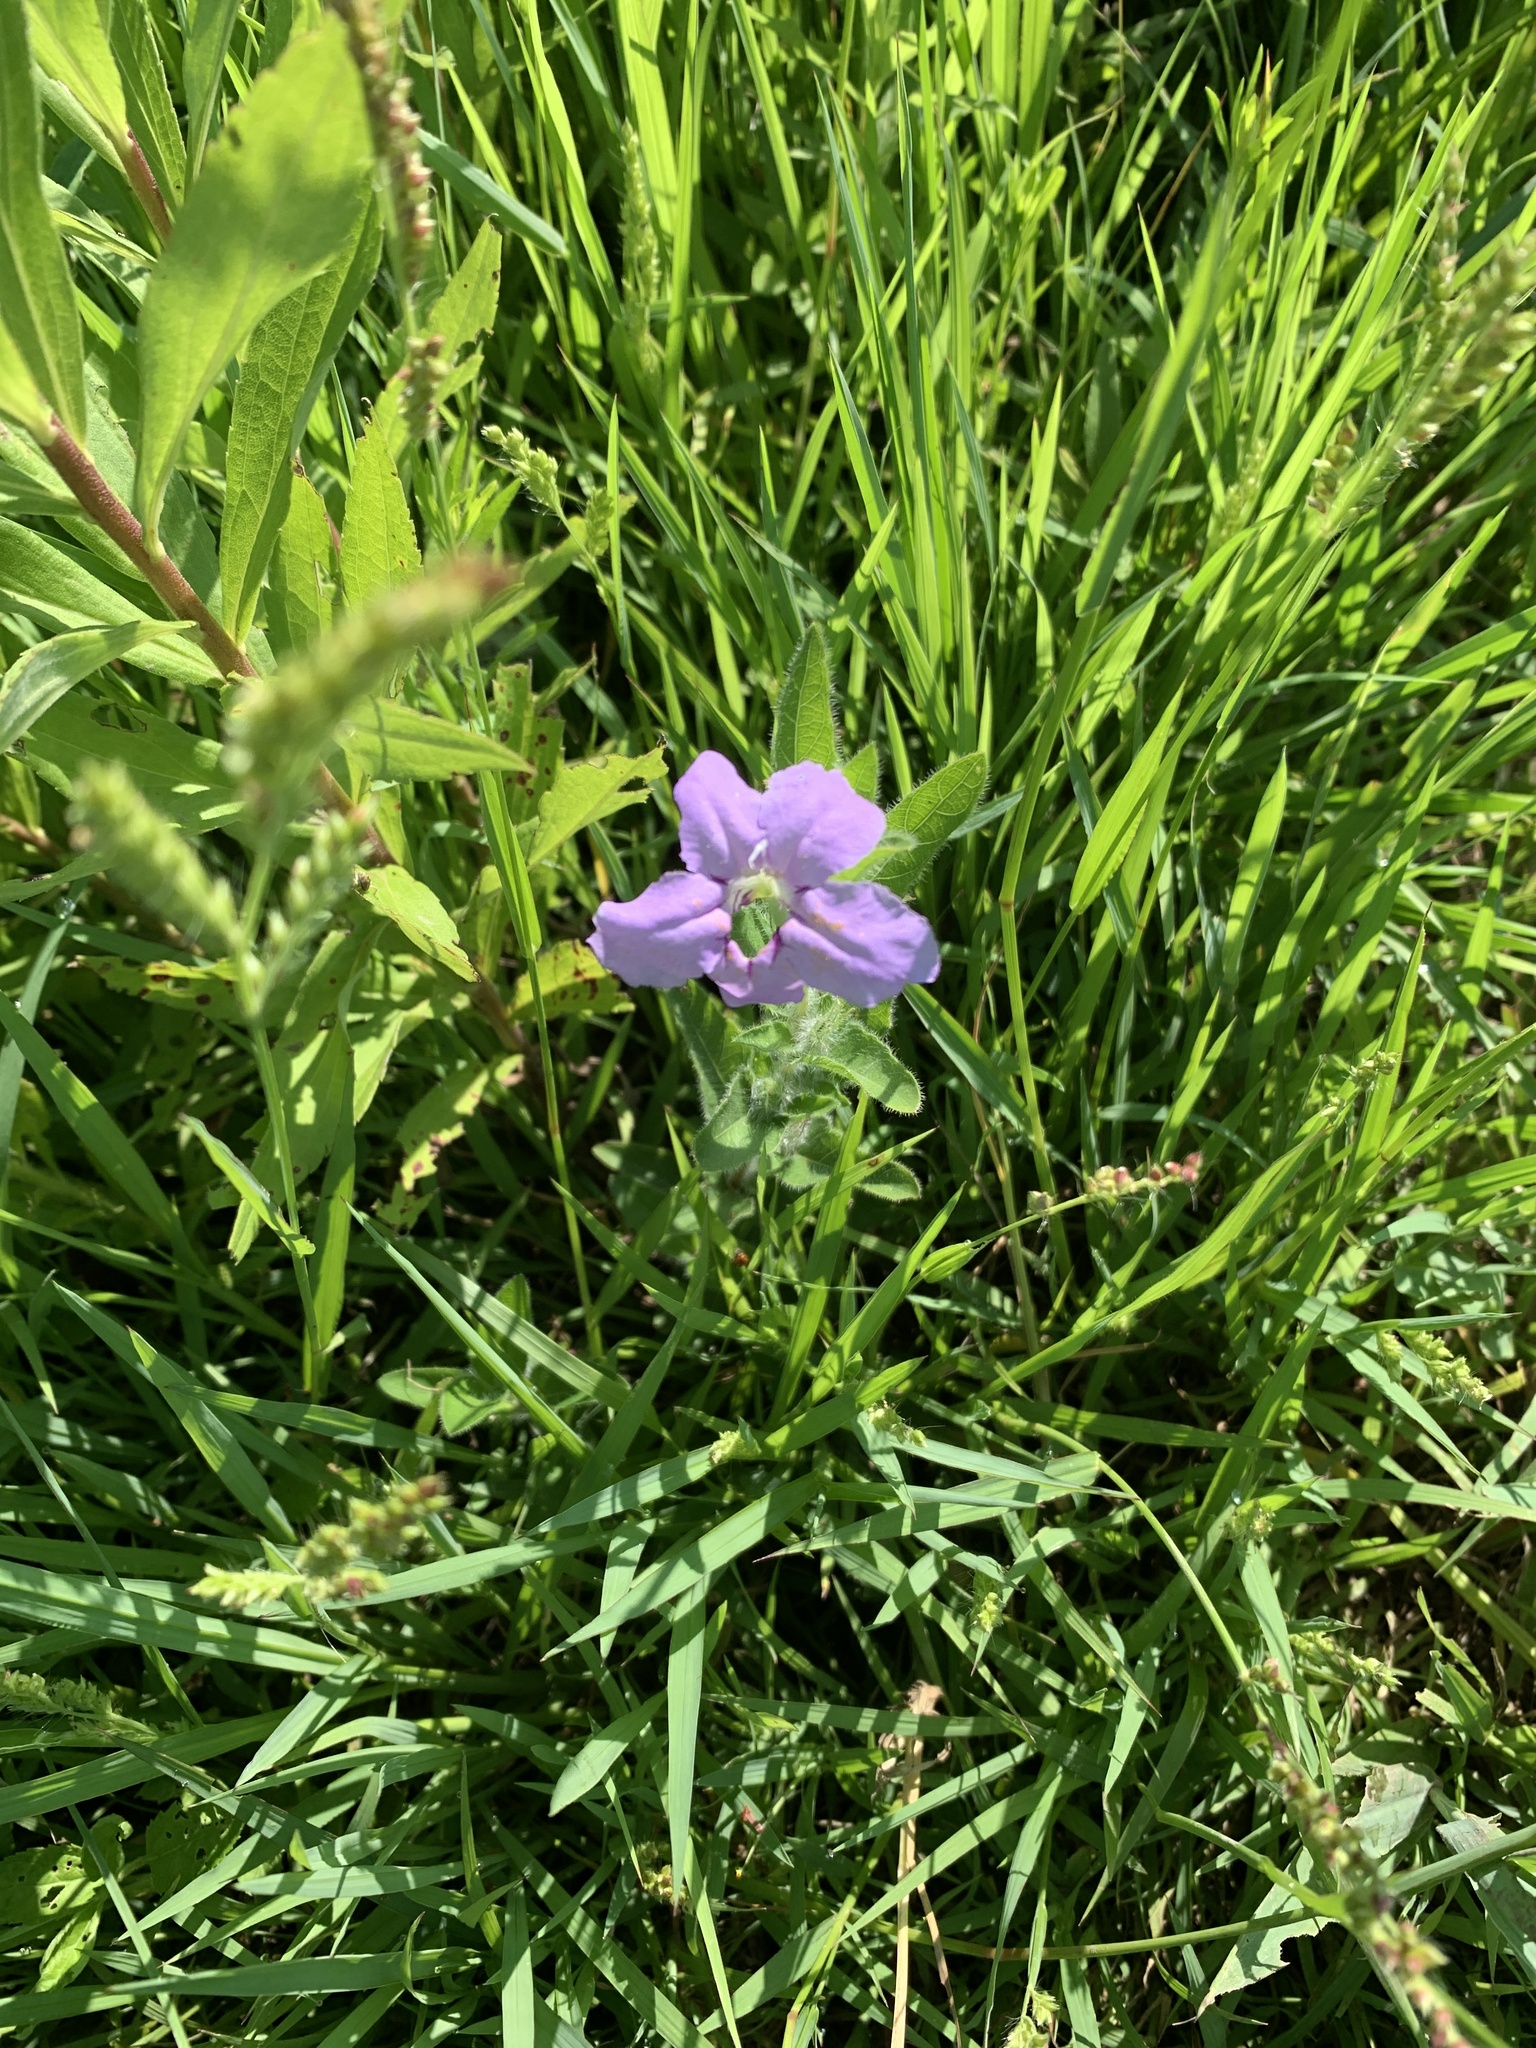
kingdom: Plantae
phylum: Tracheophyta
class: Magnoliopsida
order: Lamiales
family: Acanthaceae
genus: Ruellia
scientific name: Ruellia humilis
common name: Fringe-leaf ruellia
